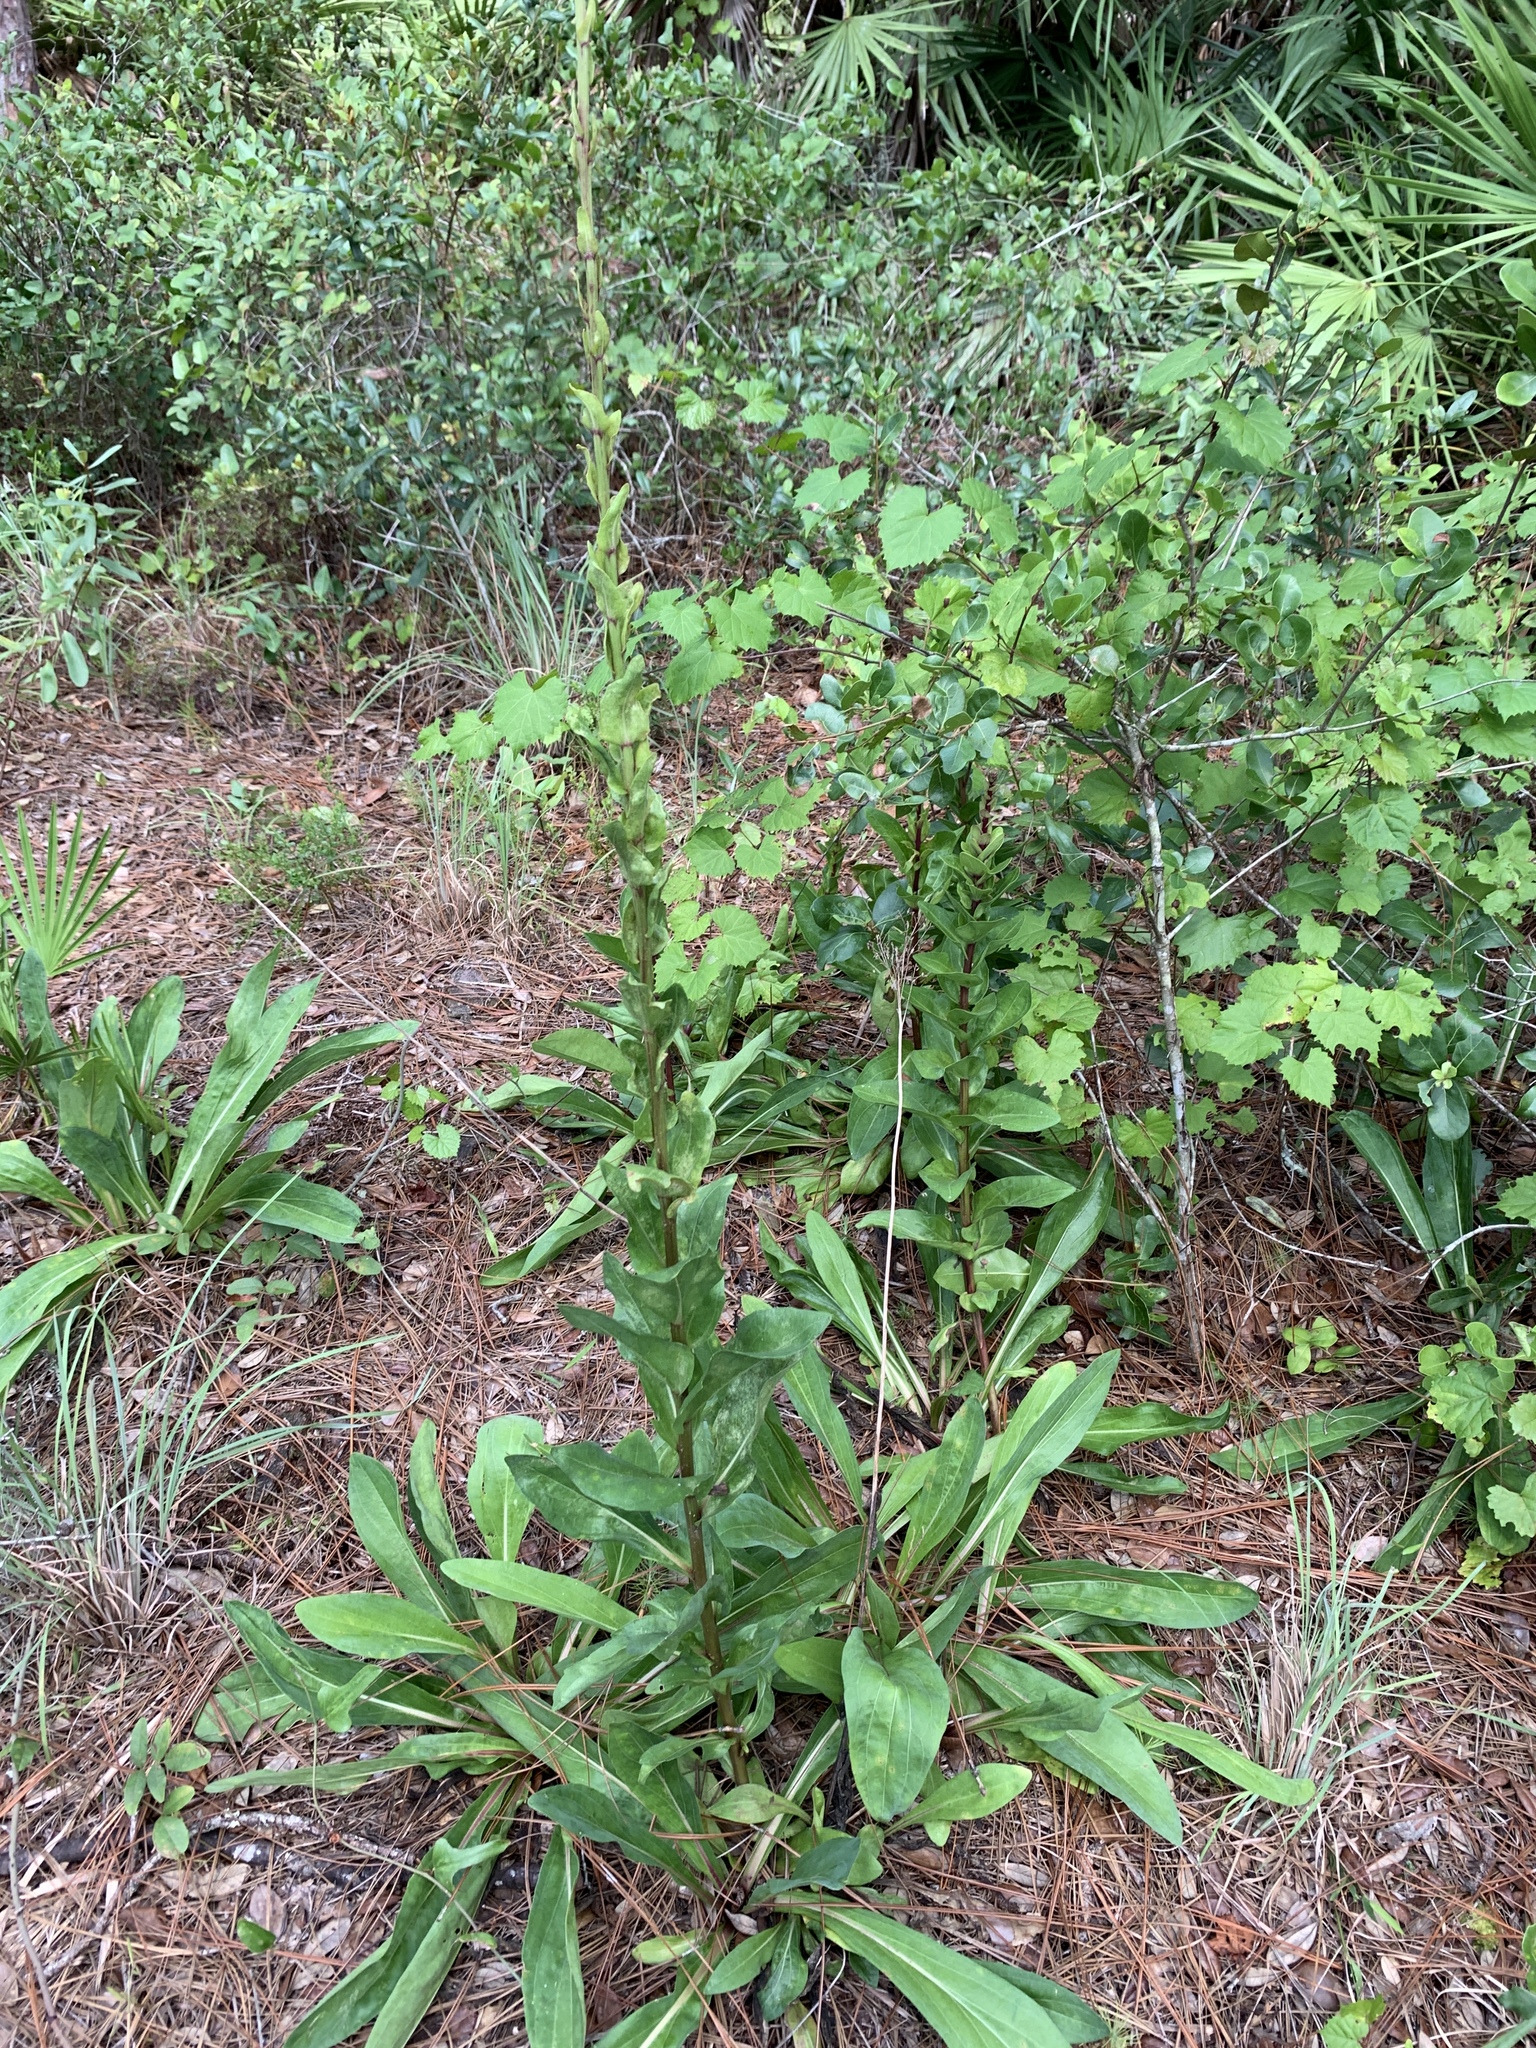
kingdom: Plantae
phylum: Tracheophyta
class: Magnoliopsida
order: Asterales
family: Asteraceae
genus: Carphephorus
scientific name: Carphephorus odoratissimus
